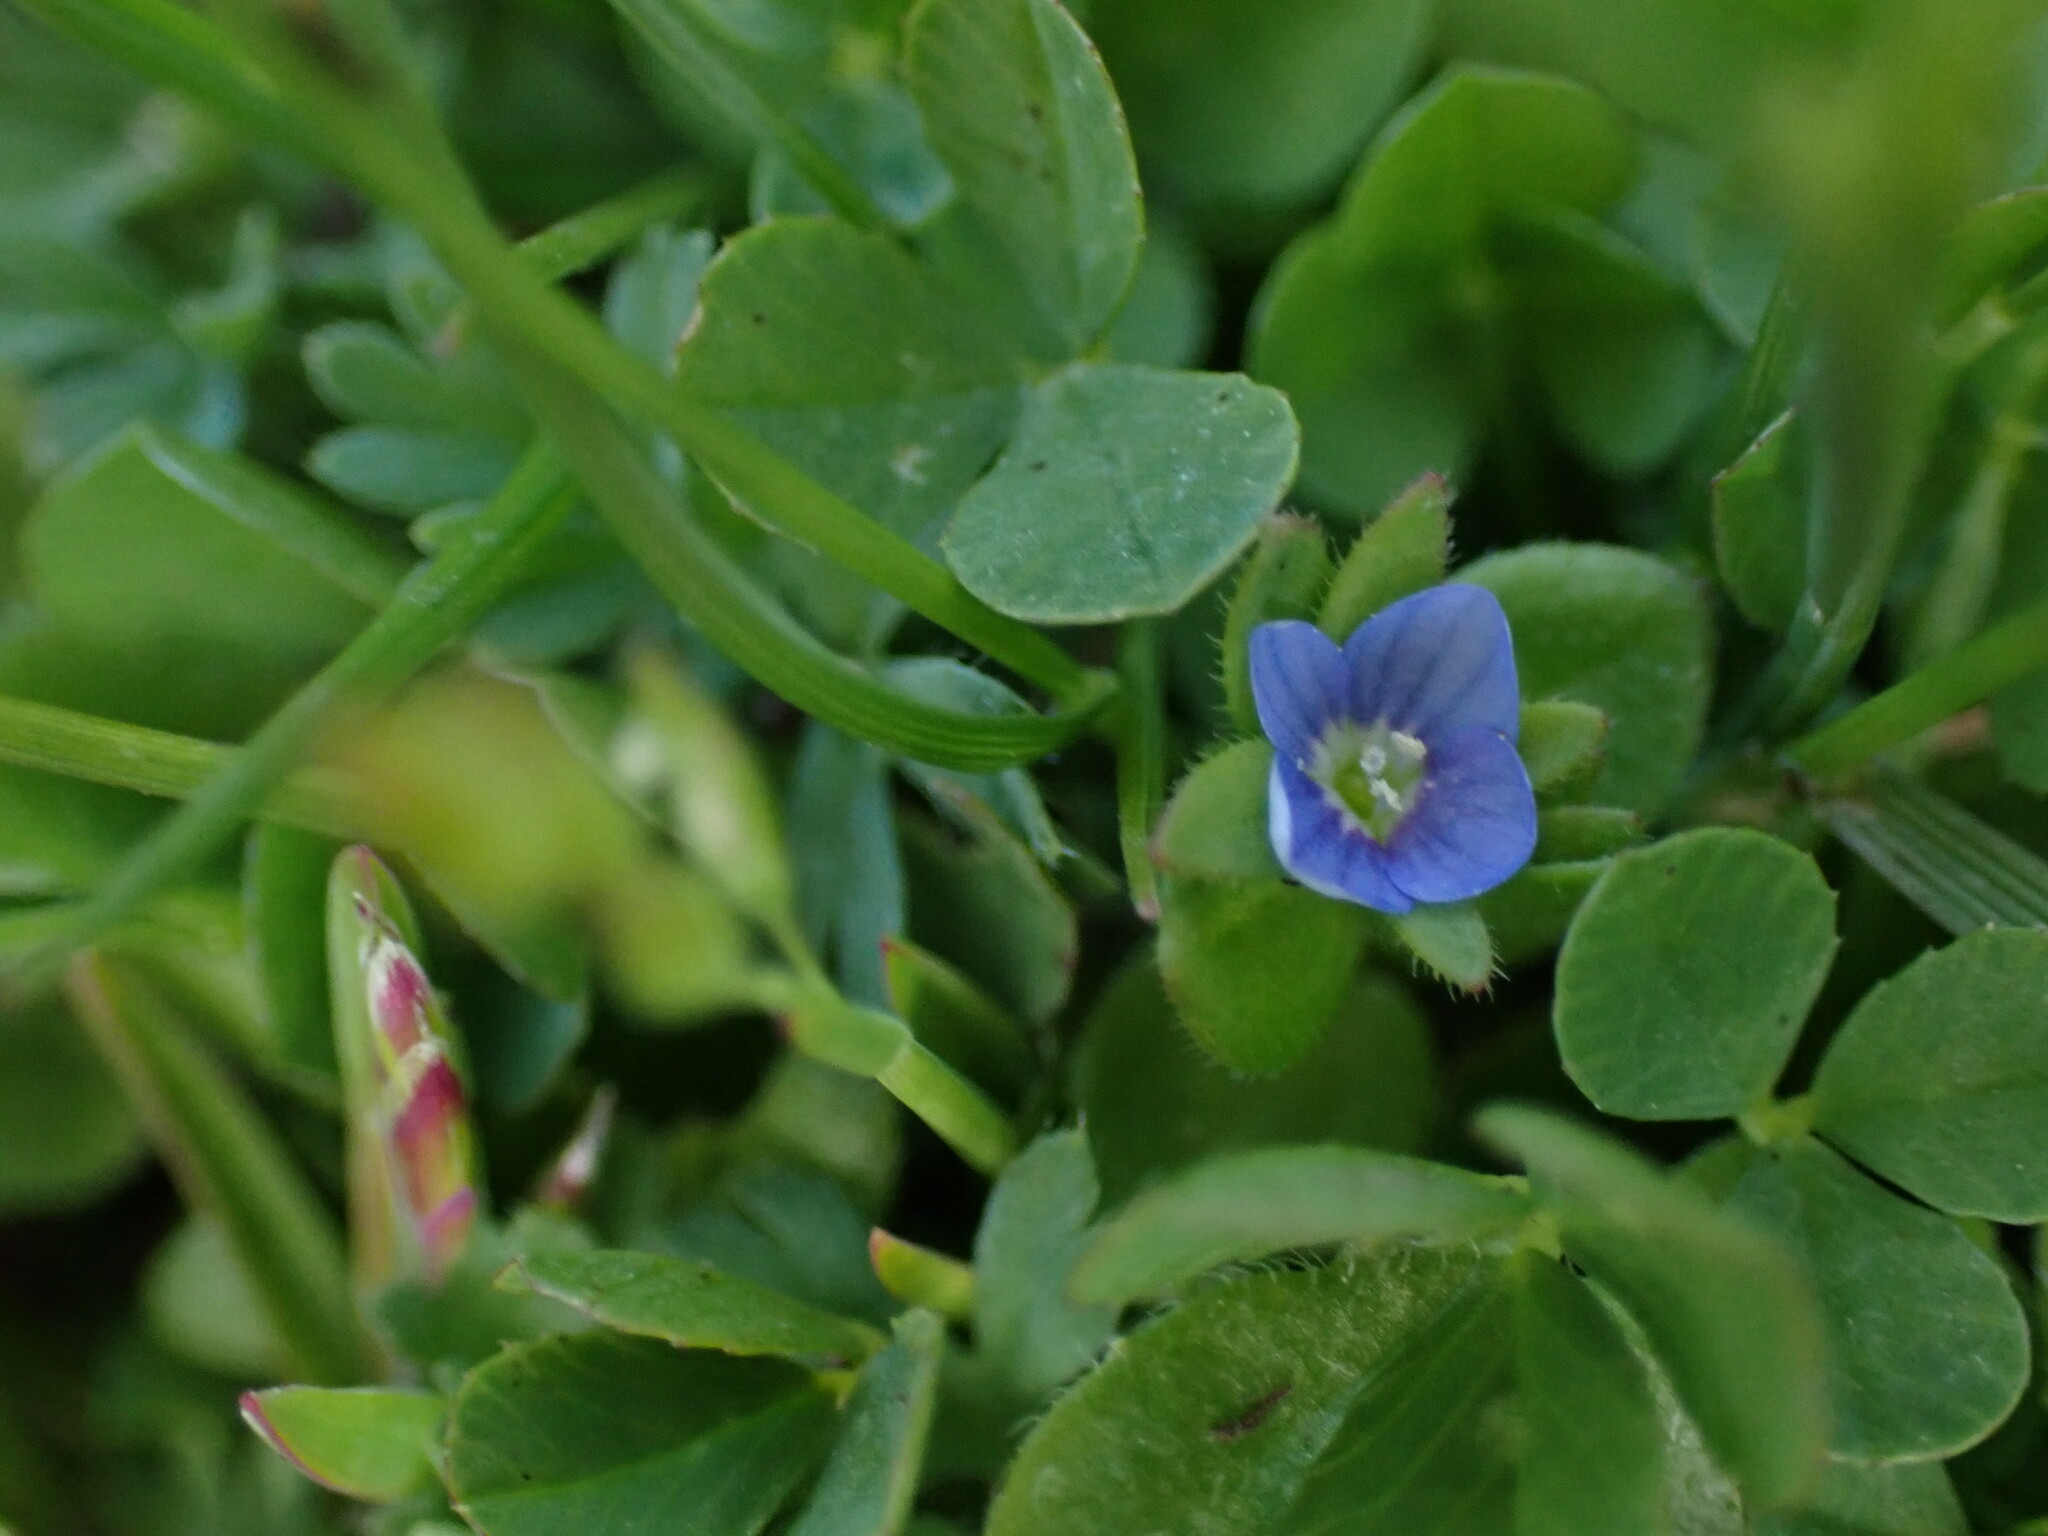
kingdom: Plantae
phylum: Tracheophyta
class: Magnoliopsida
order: Lamiales
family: Plantaginaceae
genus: Veronica
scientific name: Veronica arvensis
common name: Corn speedwell
